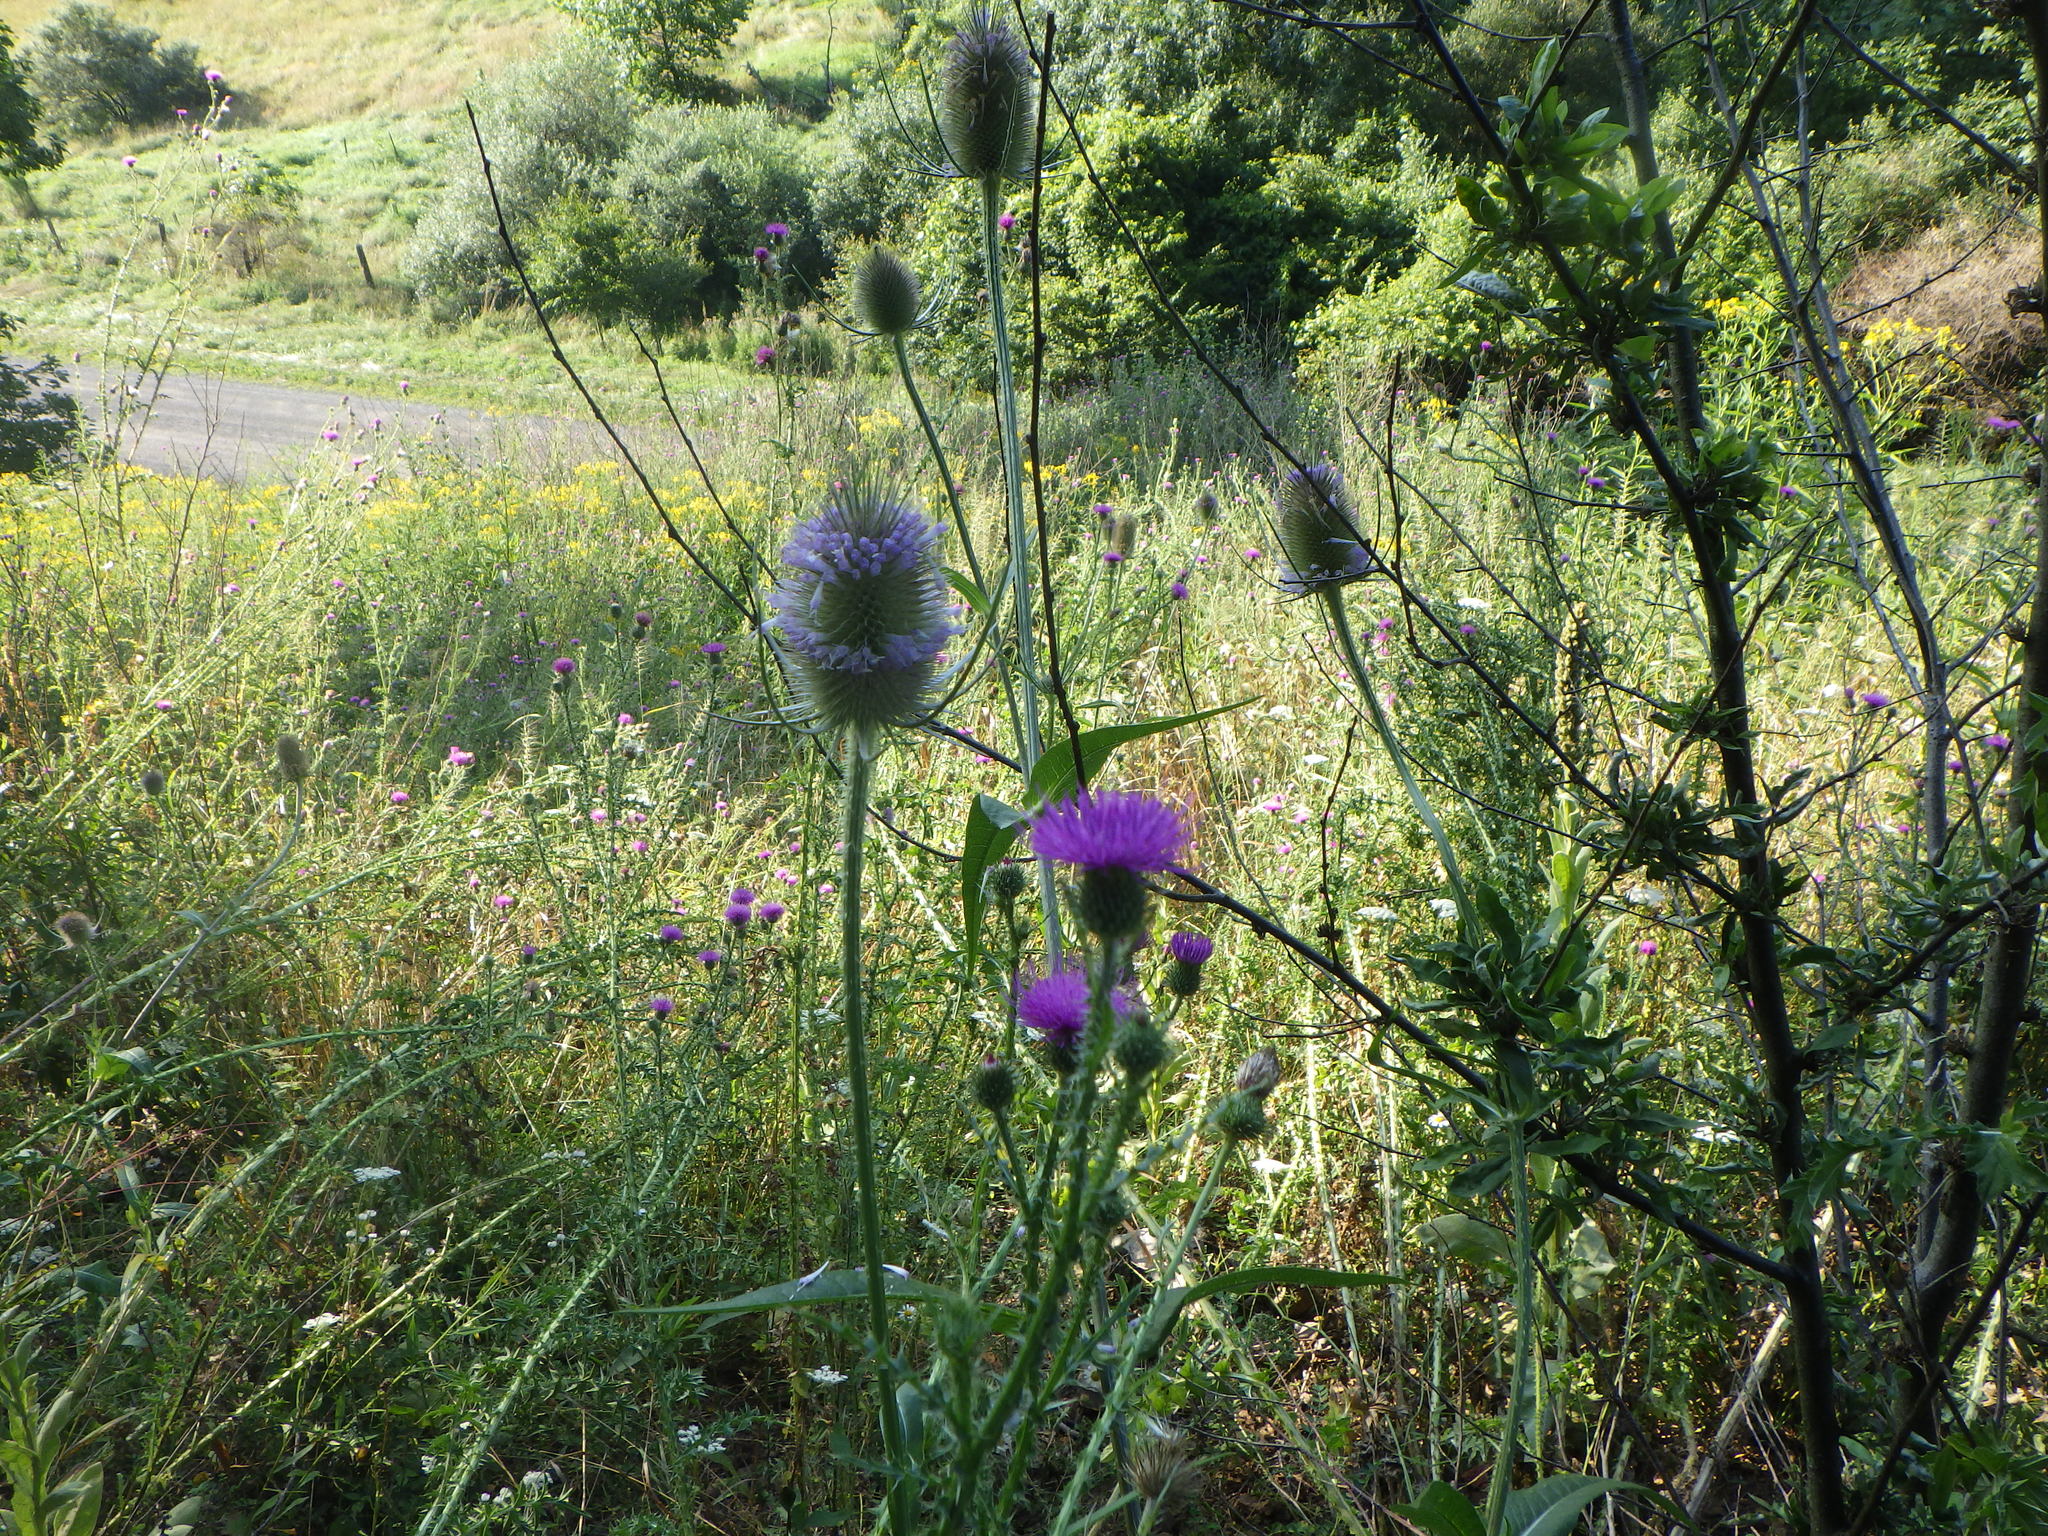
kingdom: Plantae
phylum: Tracheophyta
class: Magnoliopsida
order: Dipsacales
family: Caprifoliaceae
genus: Dipsacus
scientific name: Dipsacus fullonum
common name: Teasel
